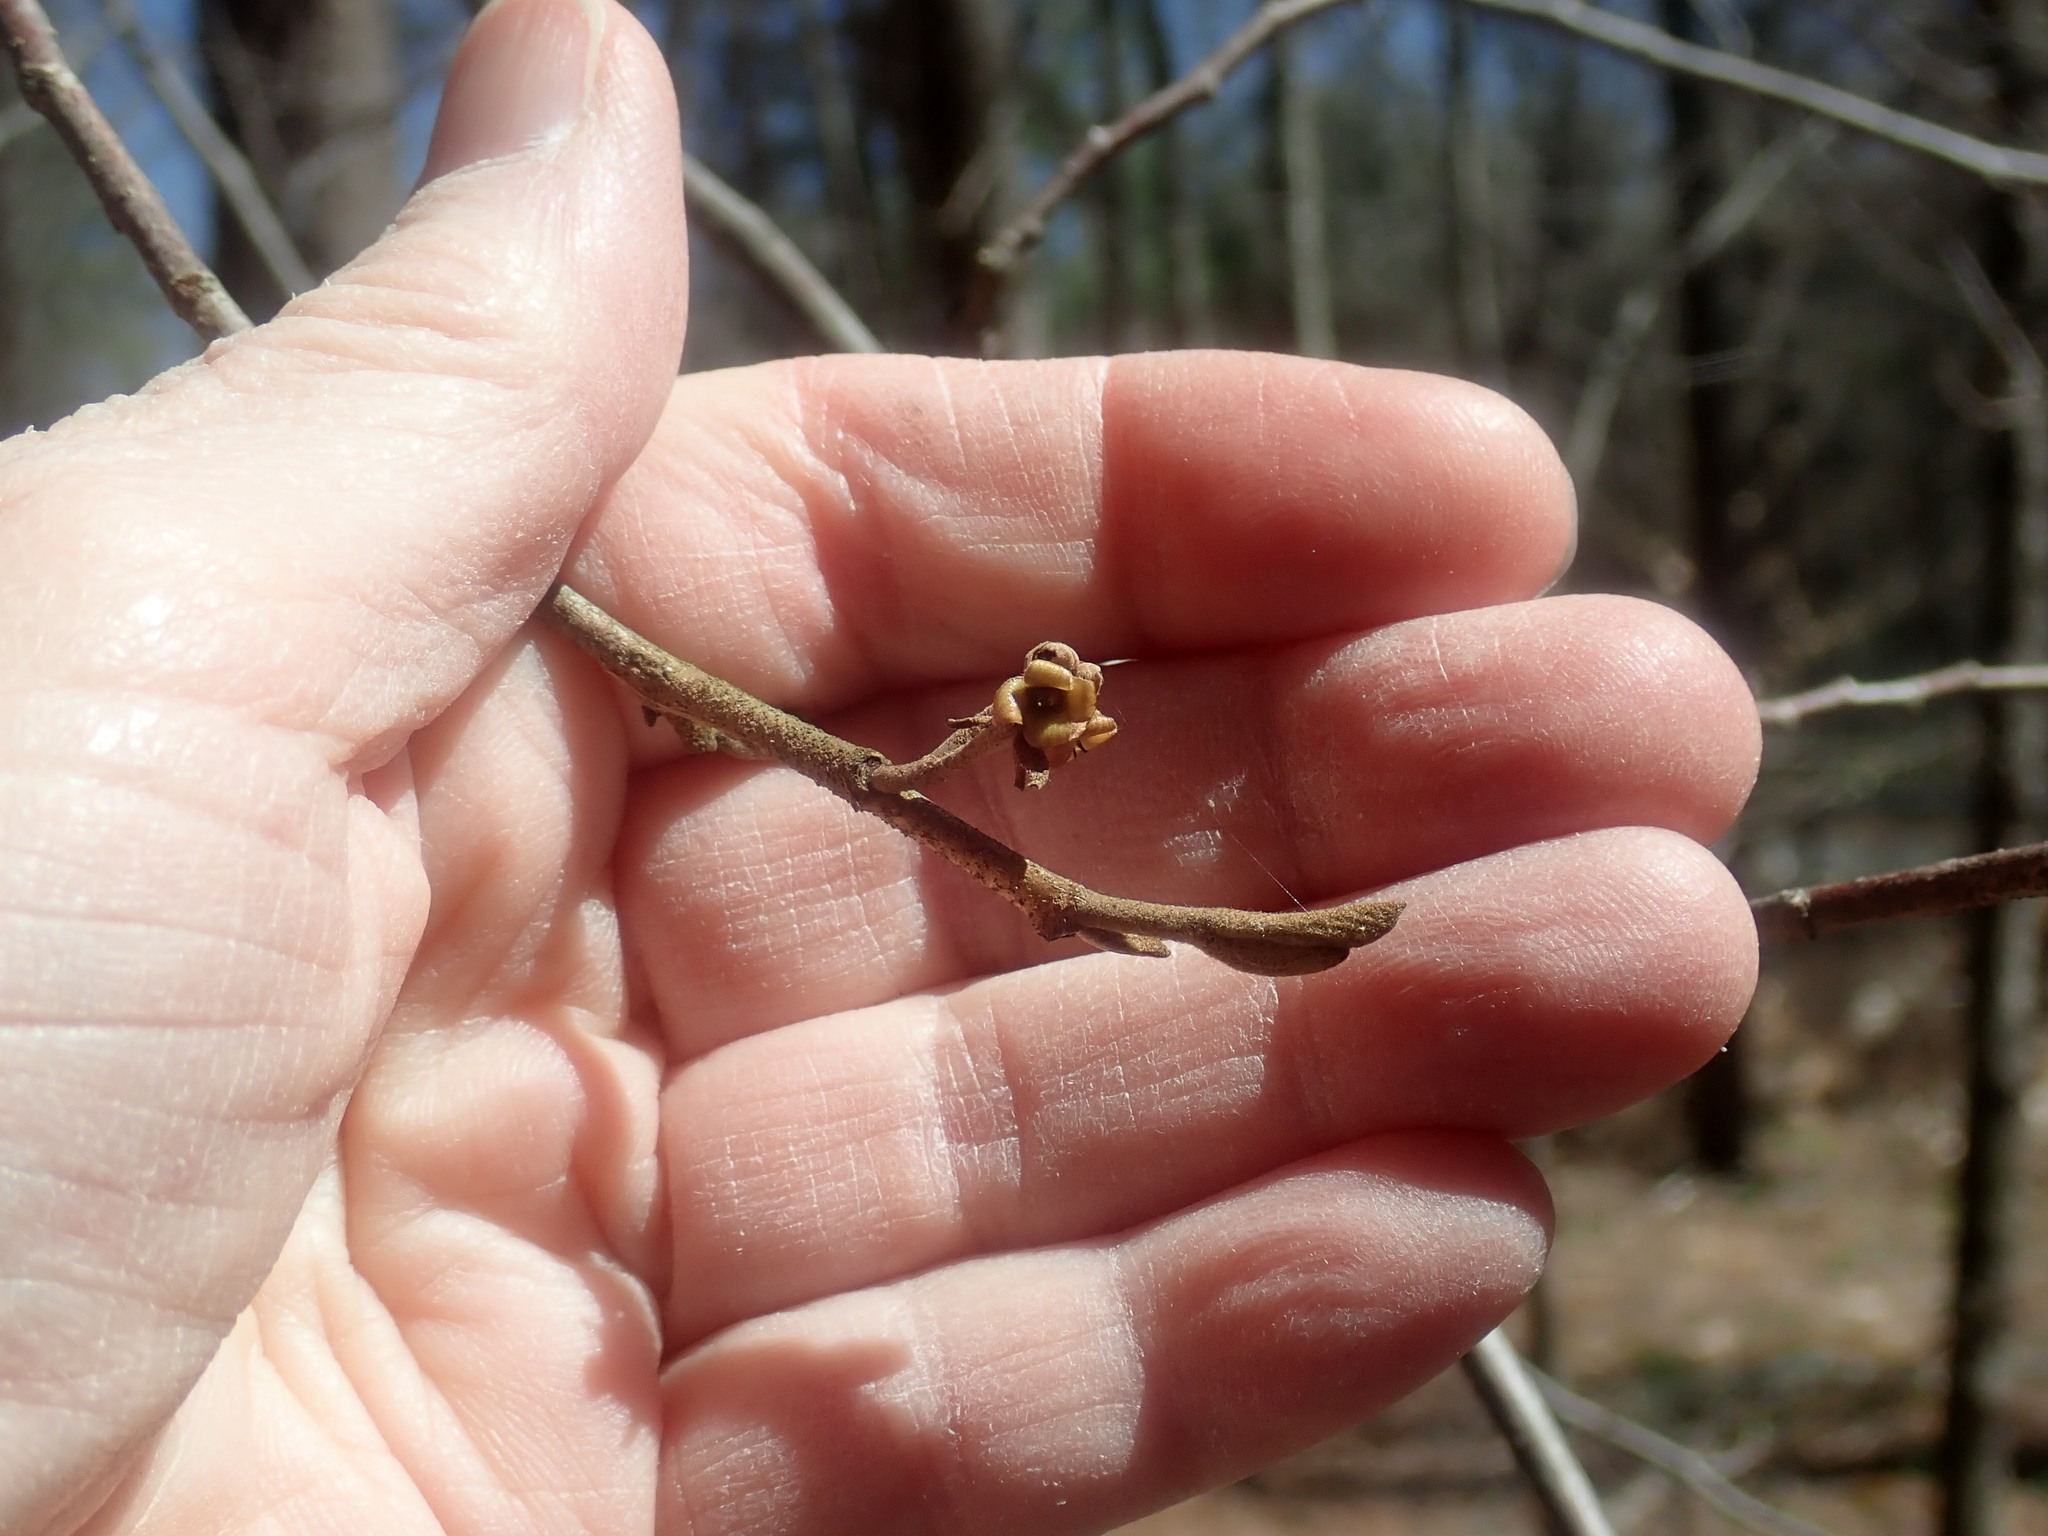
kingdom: Plantae
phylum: Tracheophyta
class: Magnoliopsida
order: Saxifragales
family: Hamamelidaceae
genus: Hamamelis
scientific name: Hamamelis virginiana
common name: Witch-hazel
